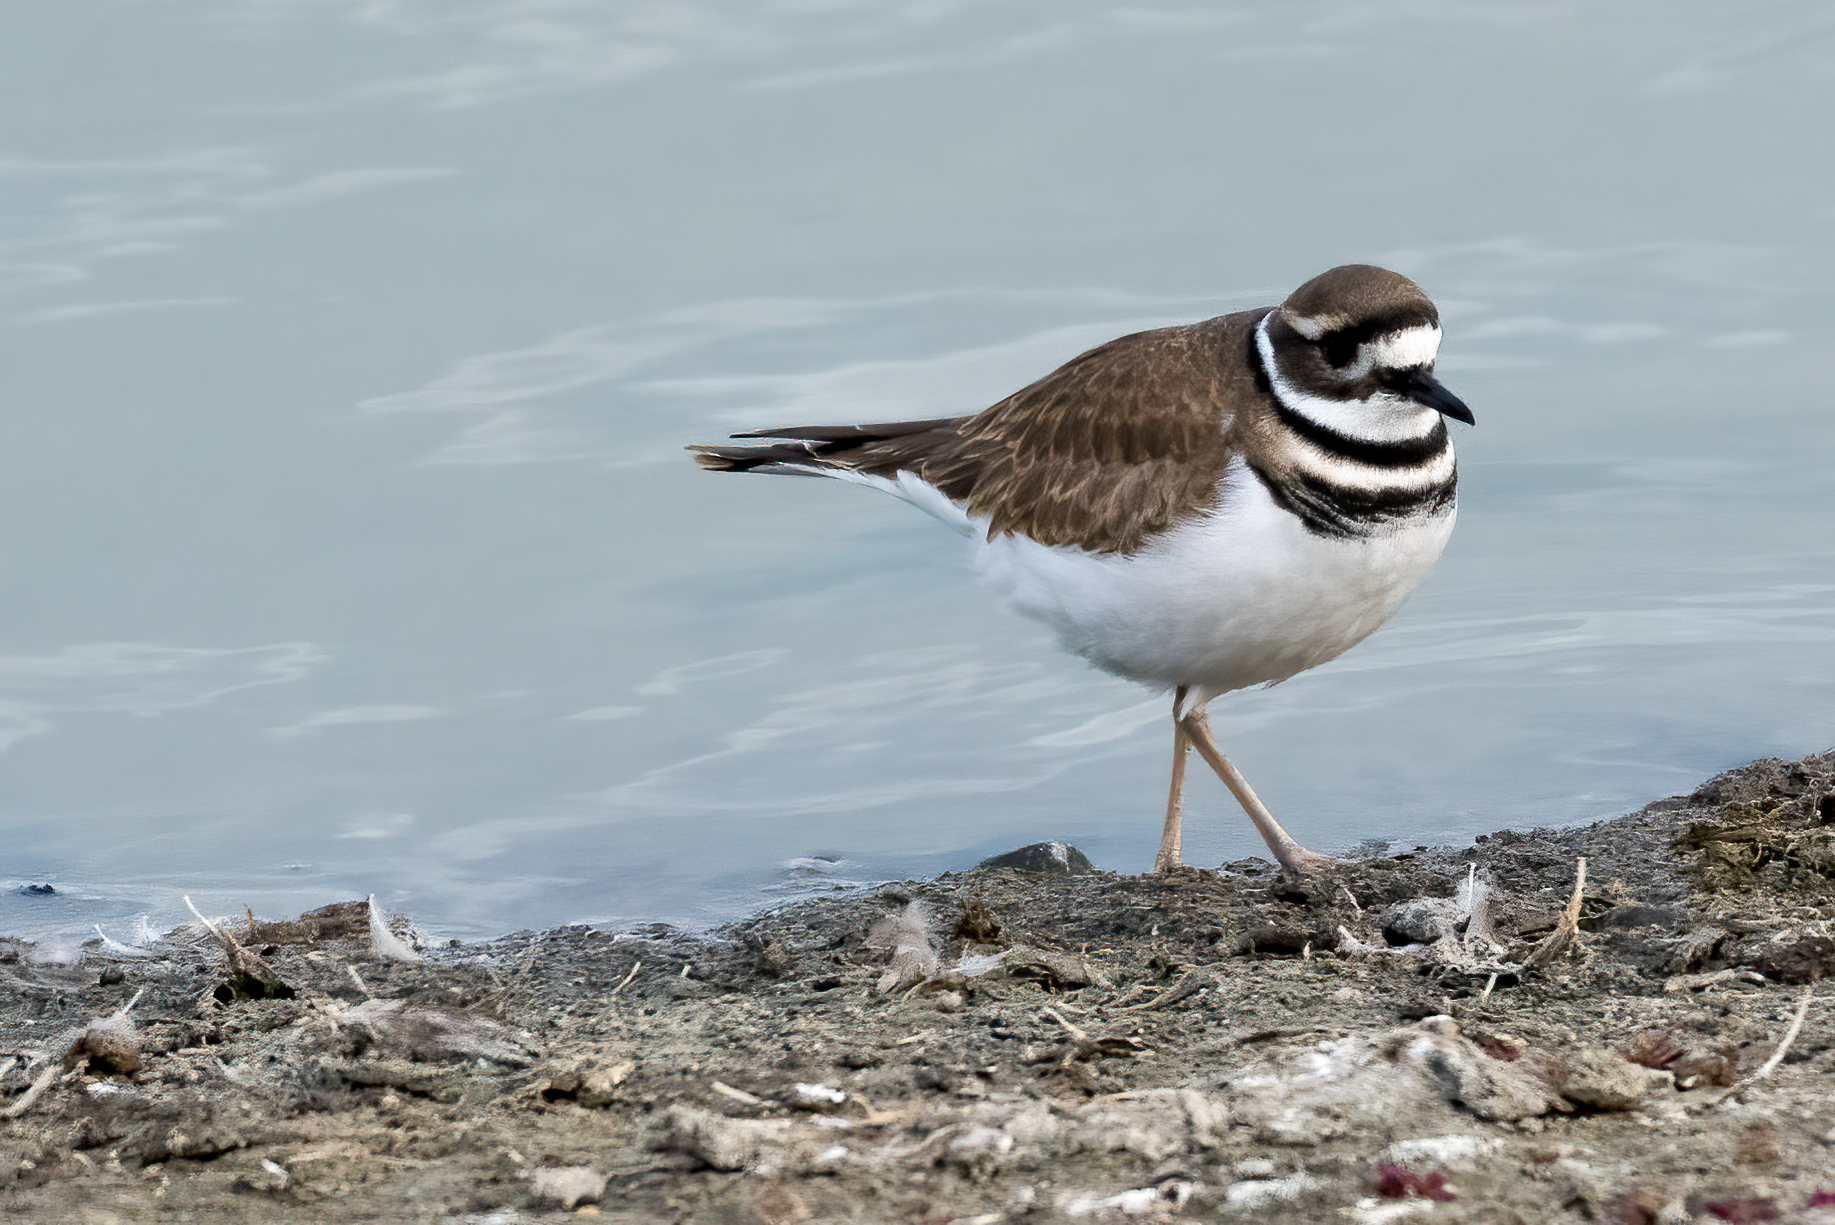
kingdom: Animalia
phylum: Chordata
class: Aves
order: Charadriiformes
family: Charadriidae
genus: Charadrius
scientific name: Charadrius vociferus
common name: Killdeer
